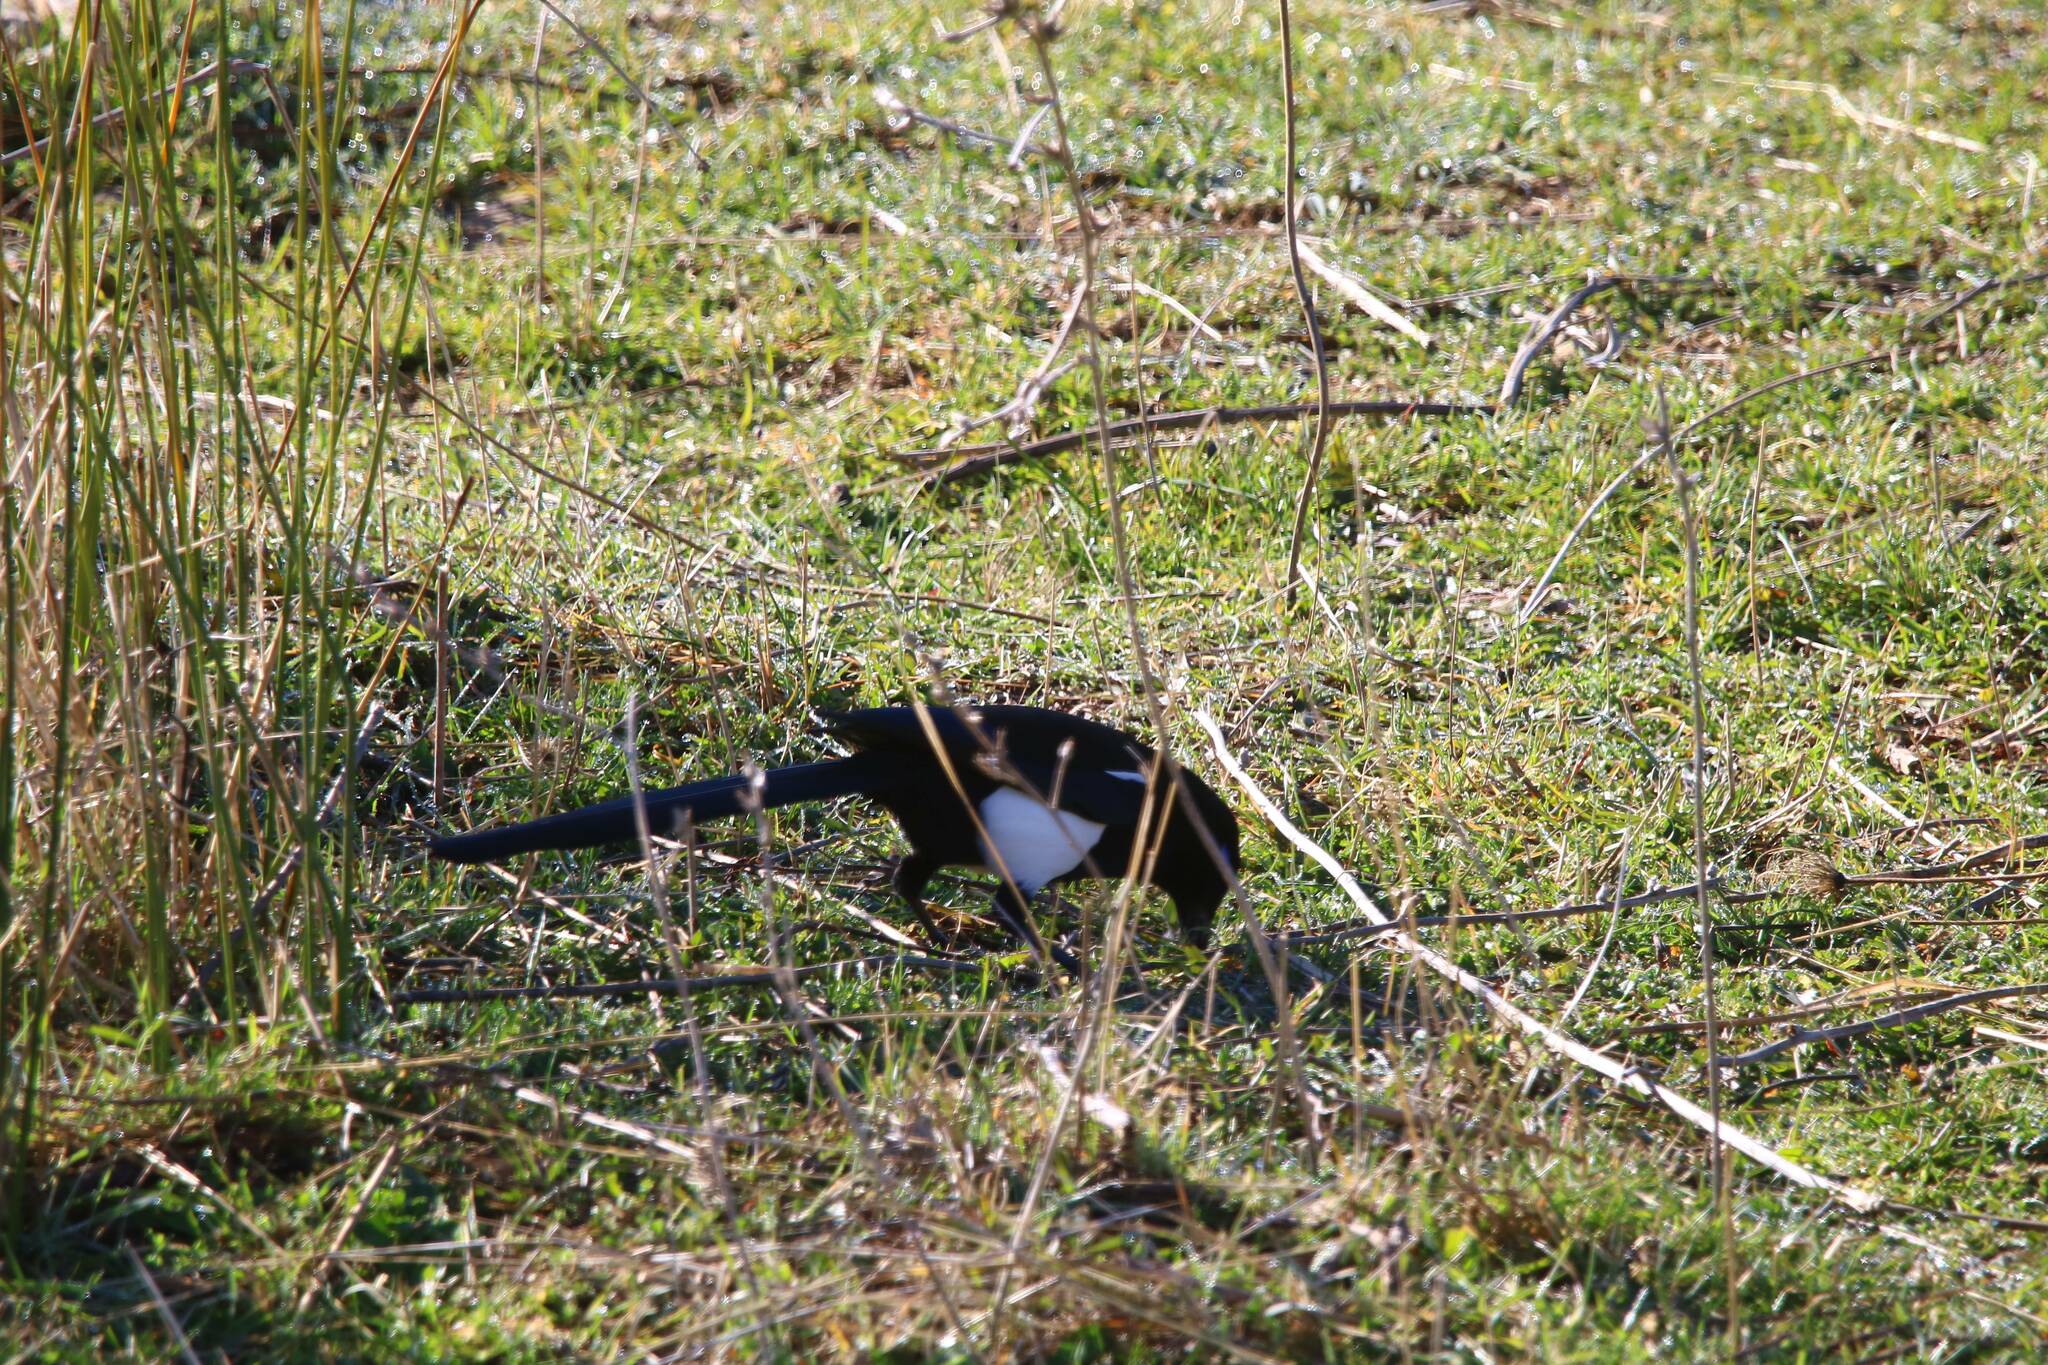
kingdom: Animalia
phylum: Chordata
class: Aves
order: Passeriformes
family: Corvidae
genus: Pica
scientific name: Pica mauritanica
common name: Maghreb magpie
